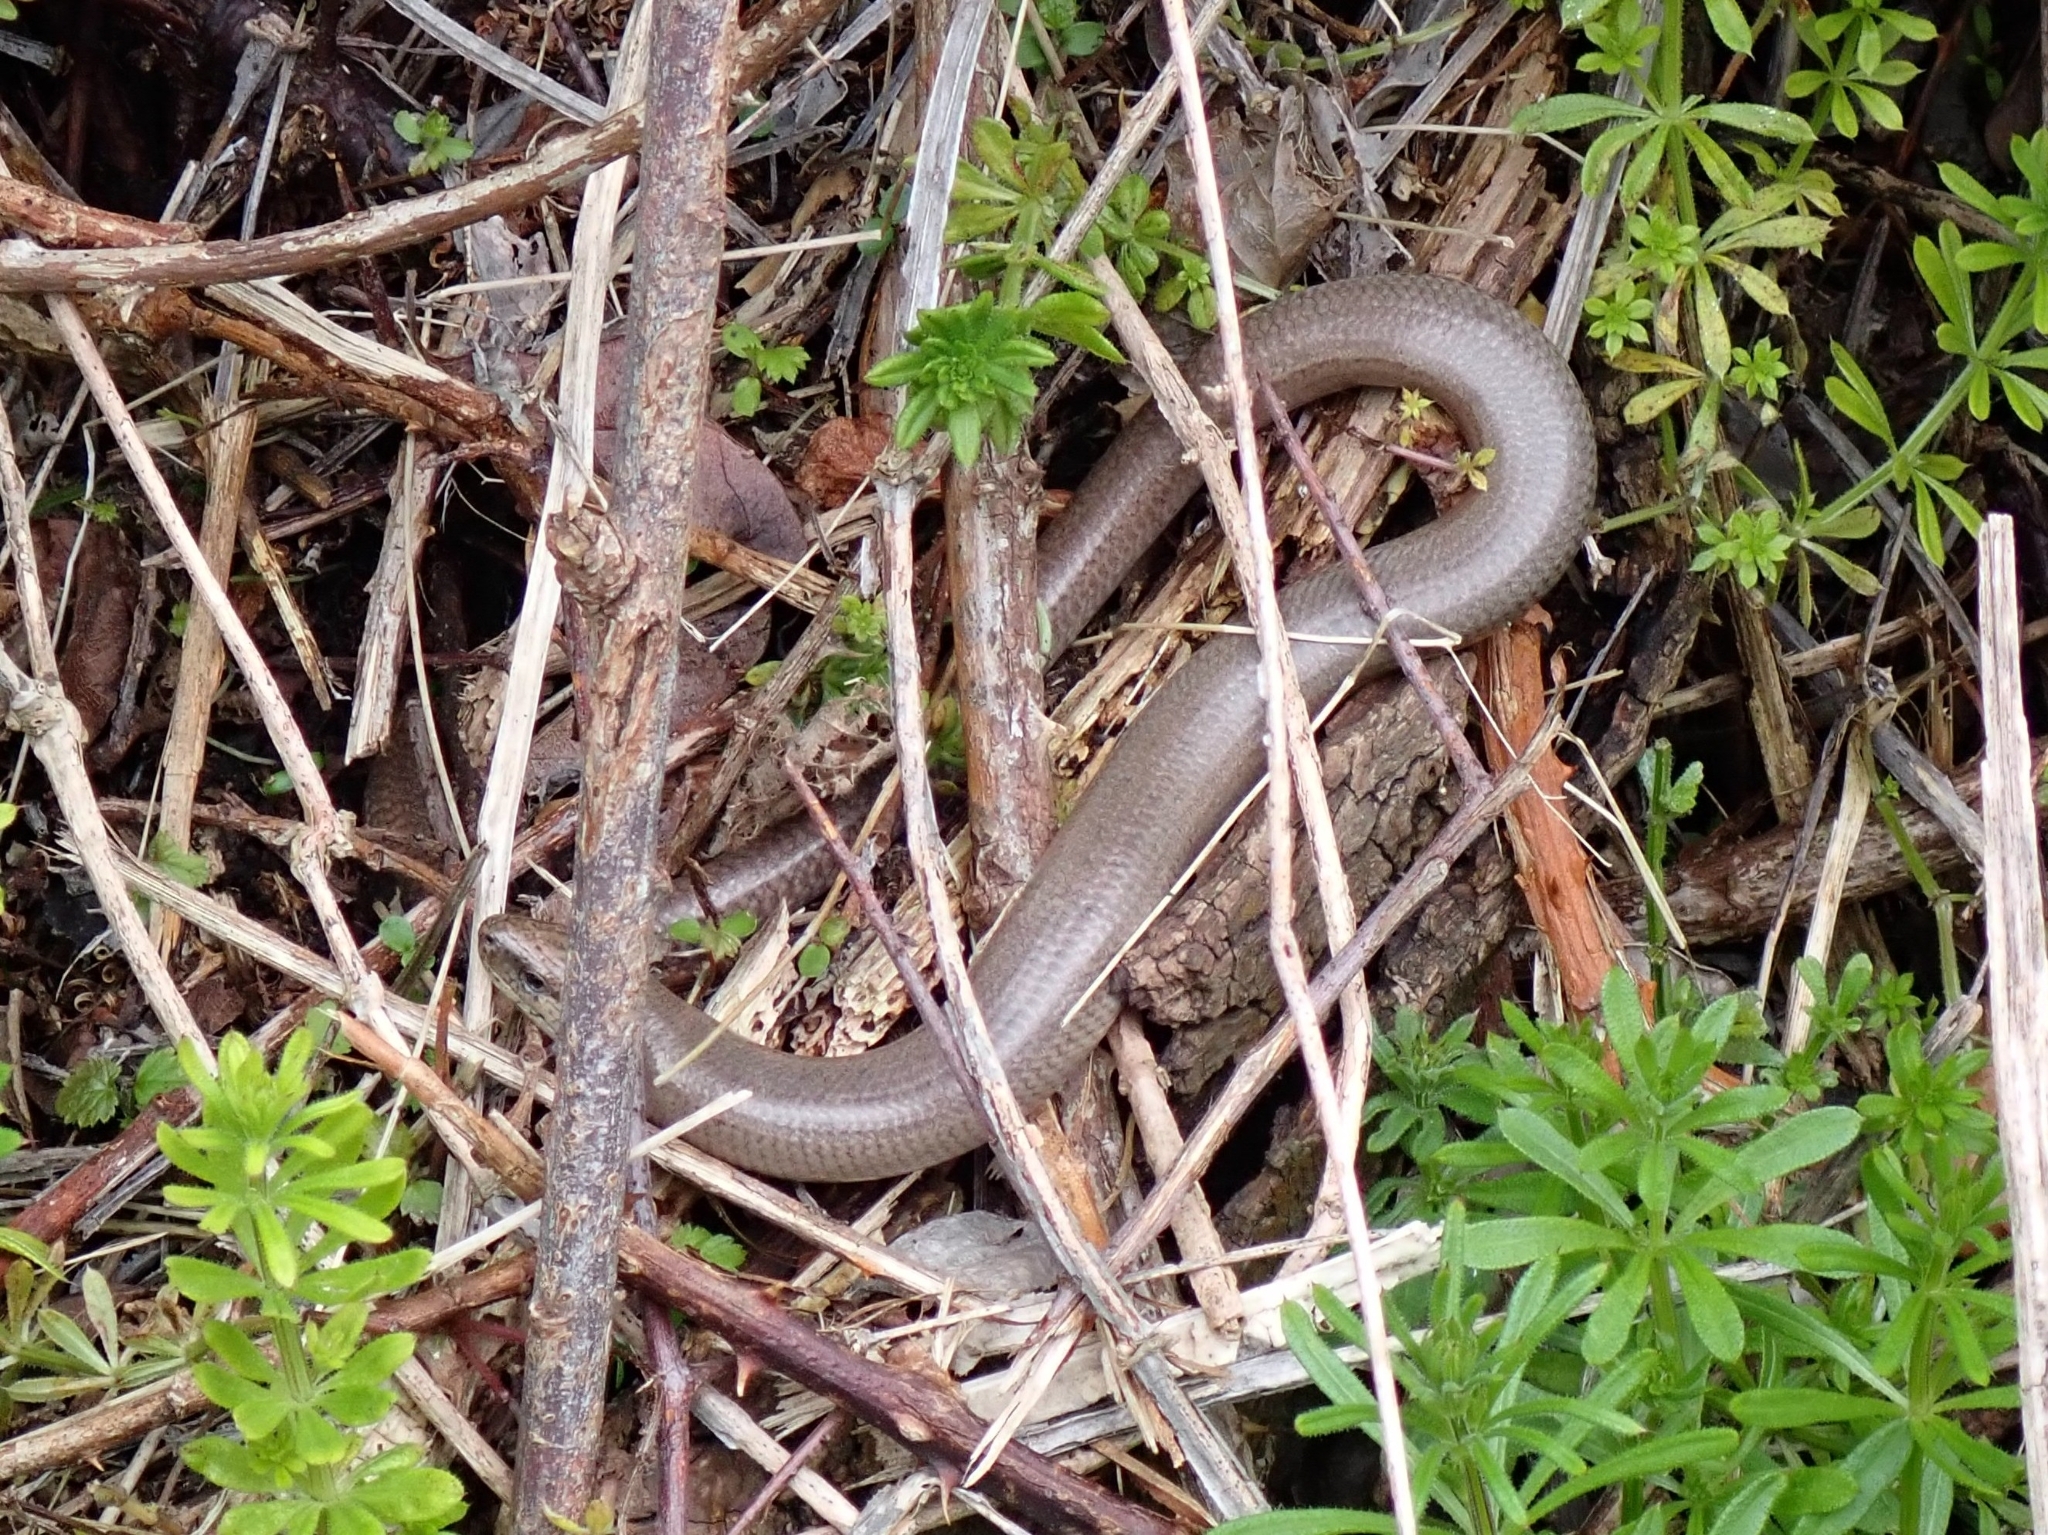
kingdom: Animalia
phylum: Chordata
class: Squamata
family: Anguidae
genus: Anguis
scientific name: Anguis fragilis
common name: Slow worm
